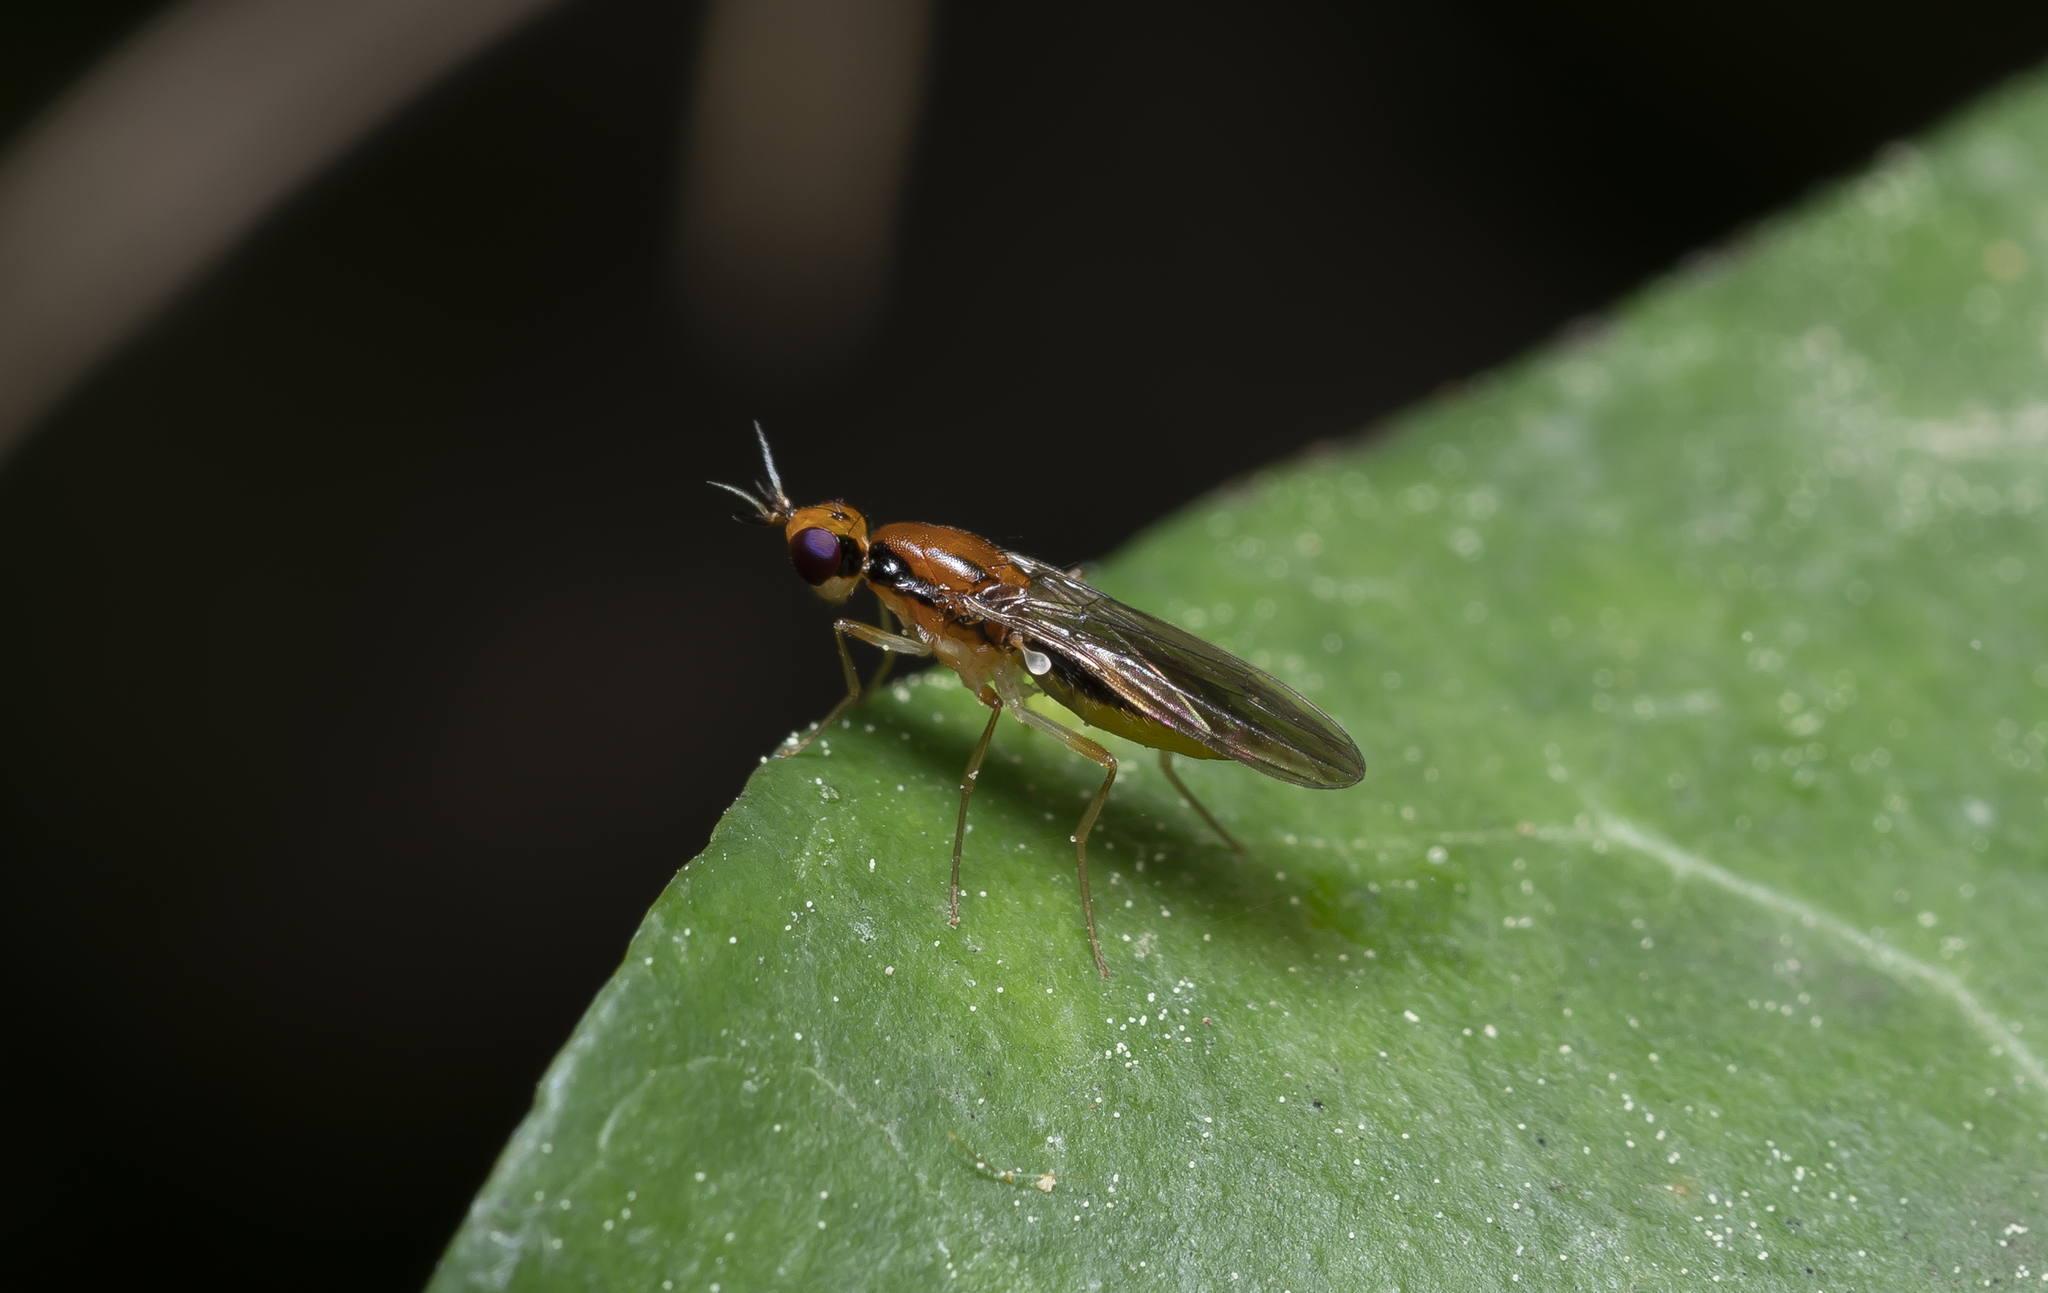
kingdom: Animalia
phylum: Arthropoda
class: Insecta
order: Diptera
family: Psilidae
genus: Psila
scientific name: Psila longipennis
